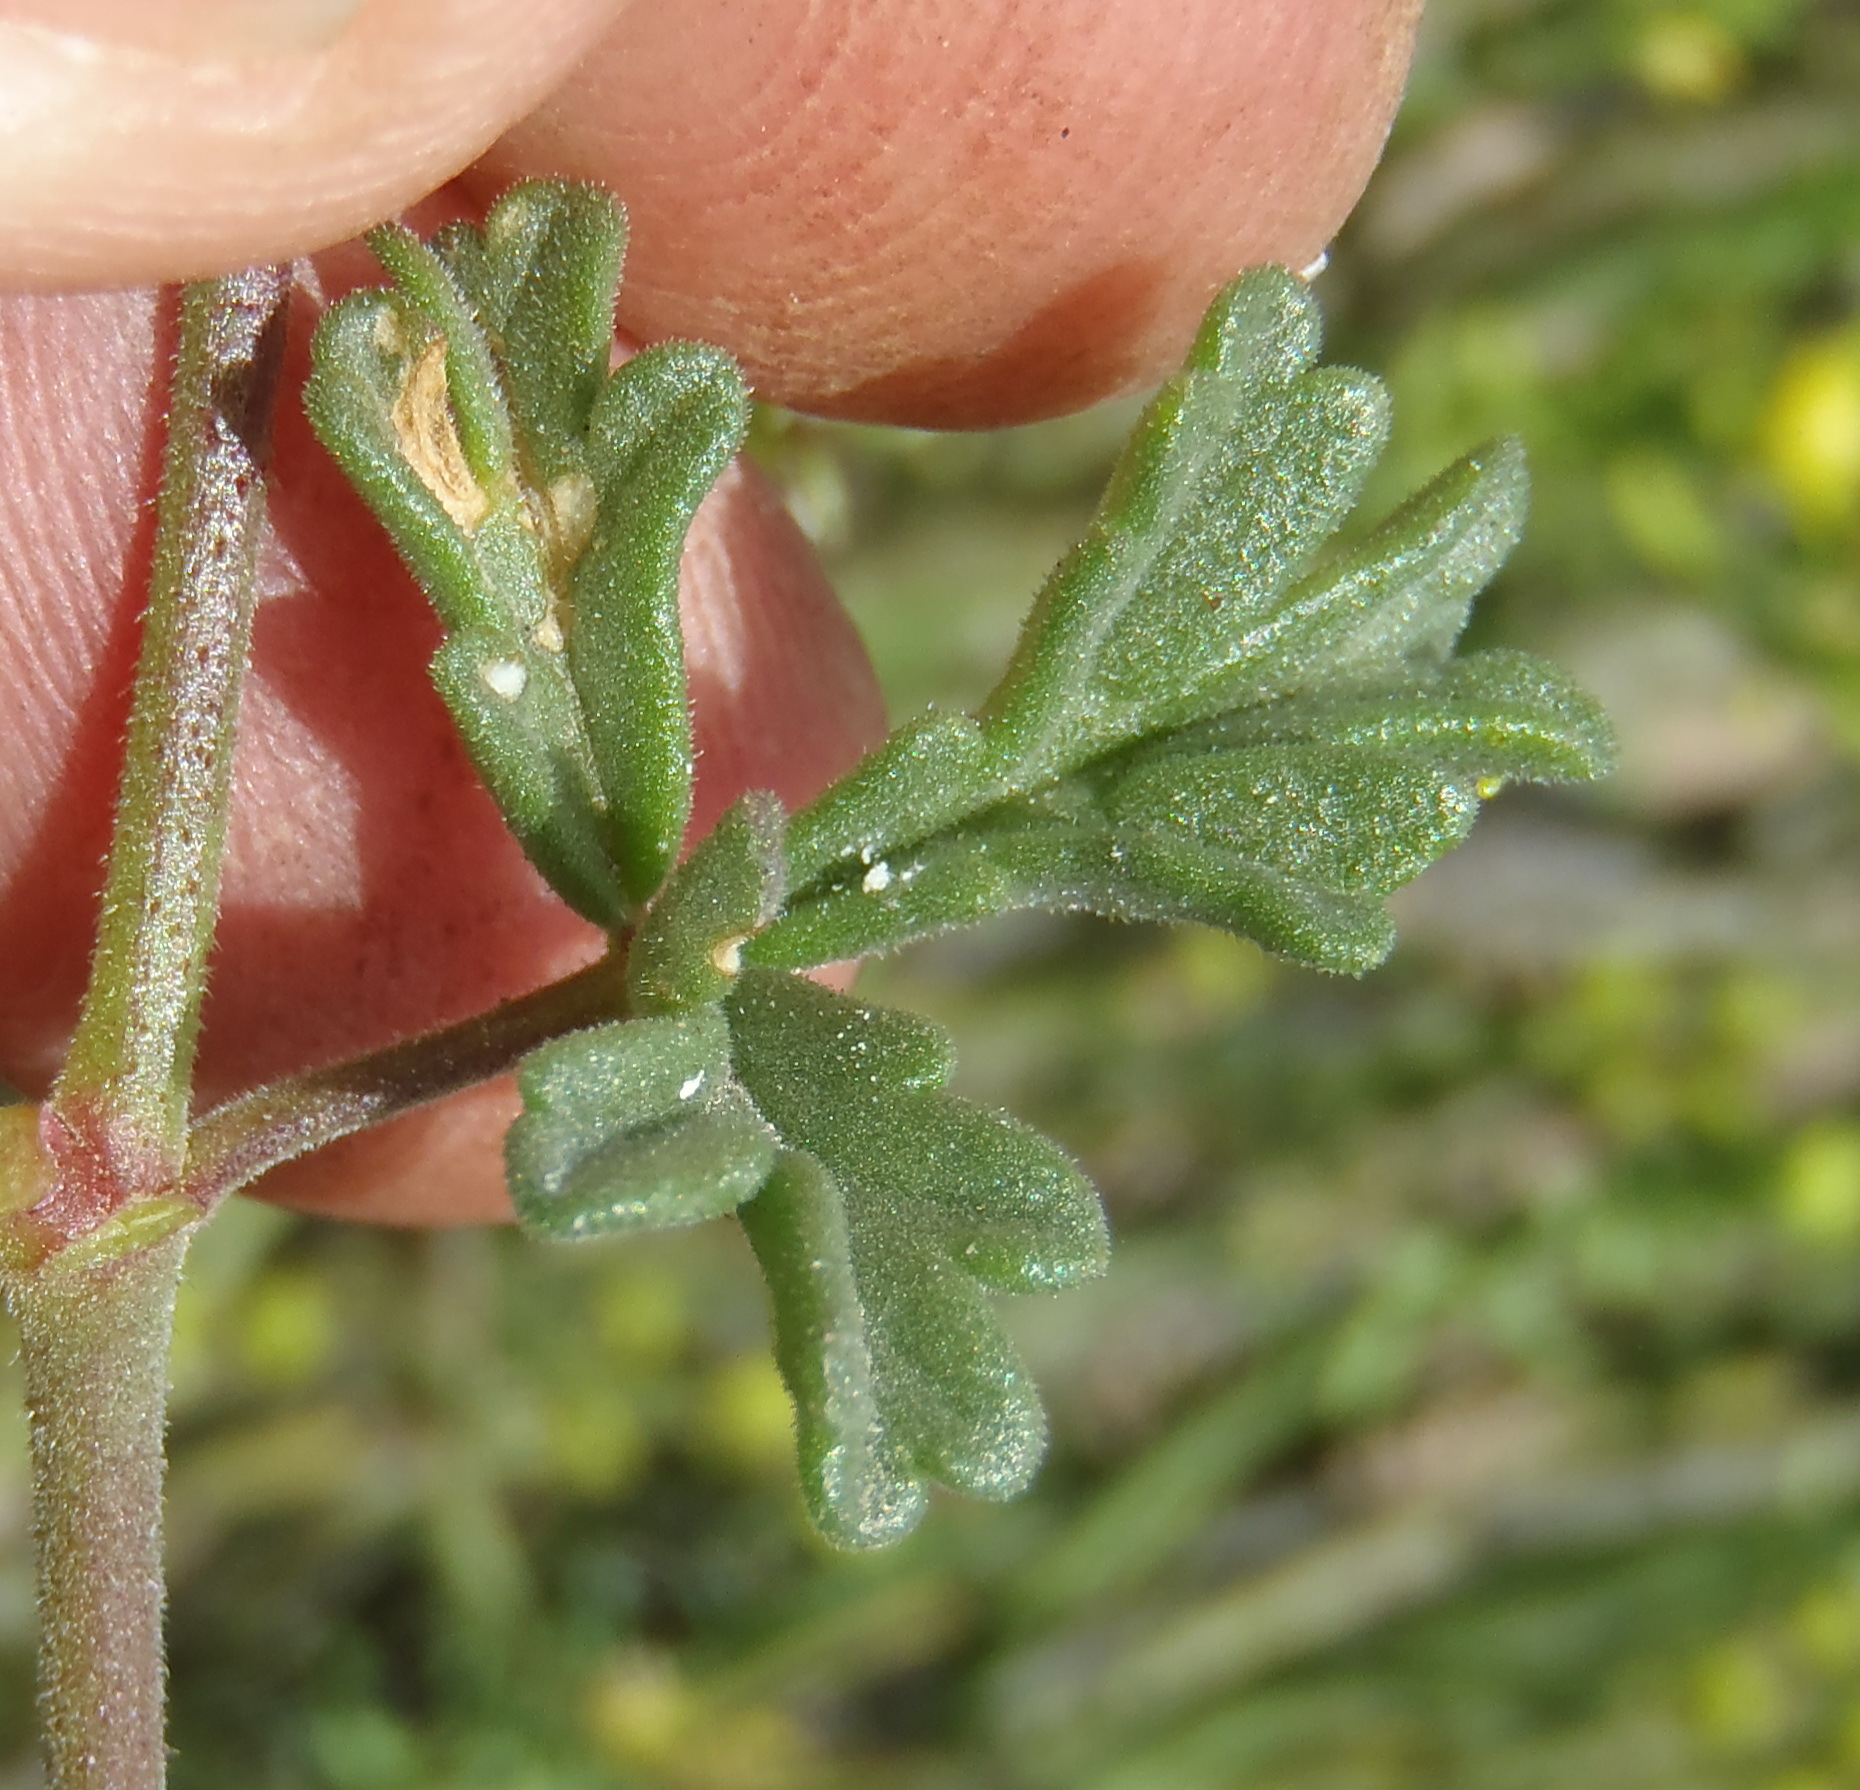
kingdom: Plantae
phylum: Tracheophyta
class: Magnoliopsida
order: Geraniales
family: Geraniaceae
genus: Pelargonium
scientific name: Pelargonium trifidum
